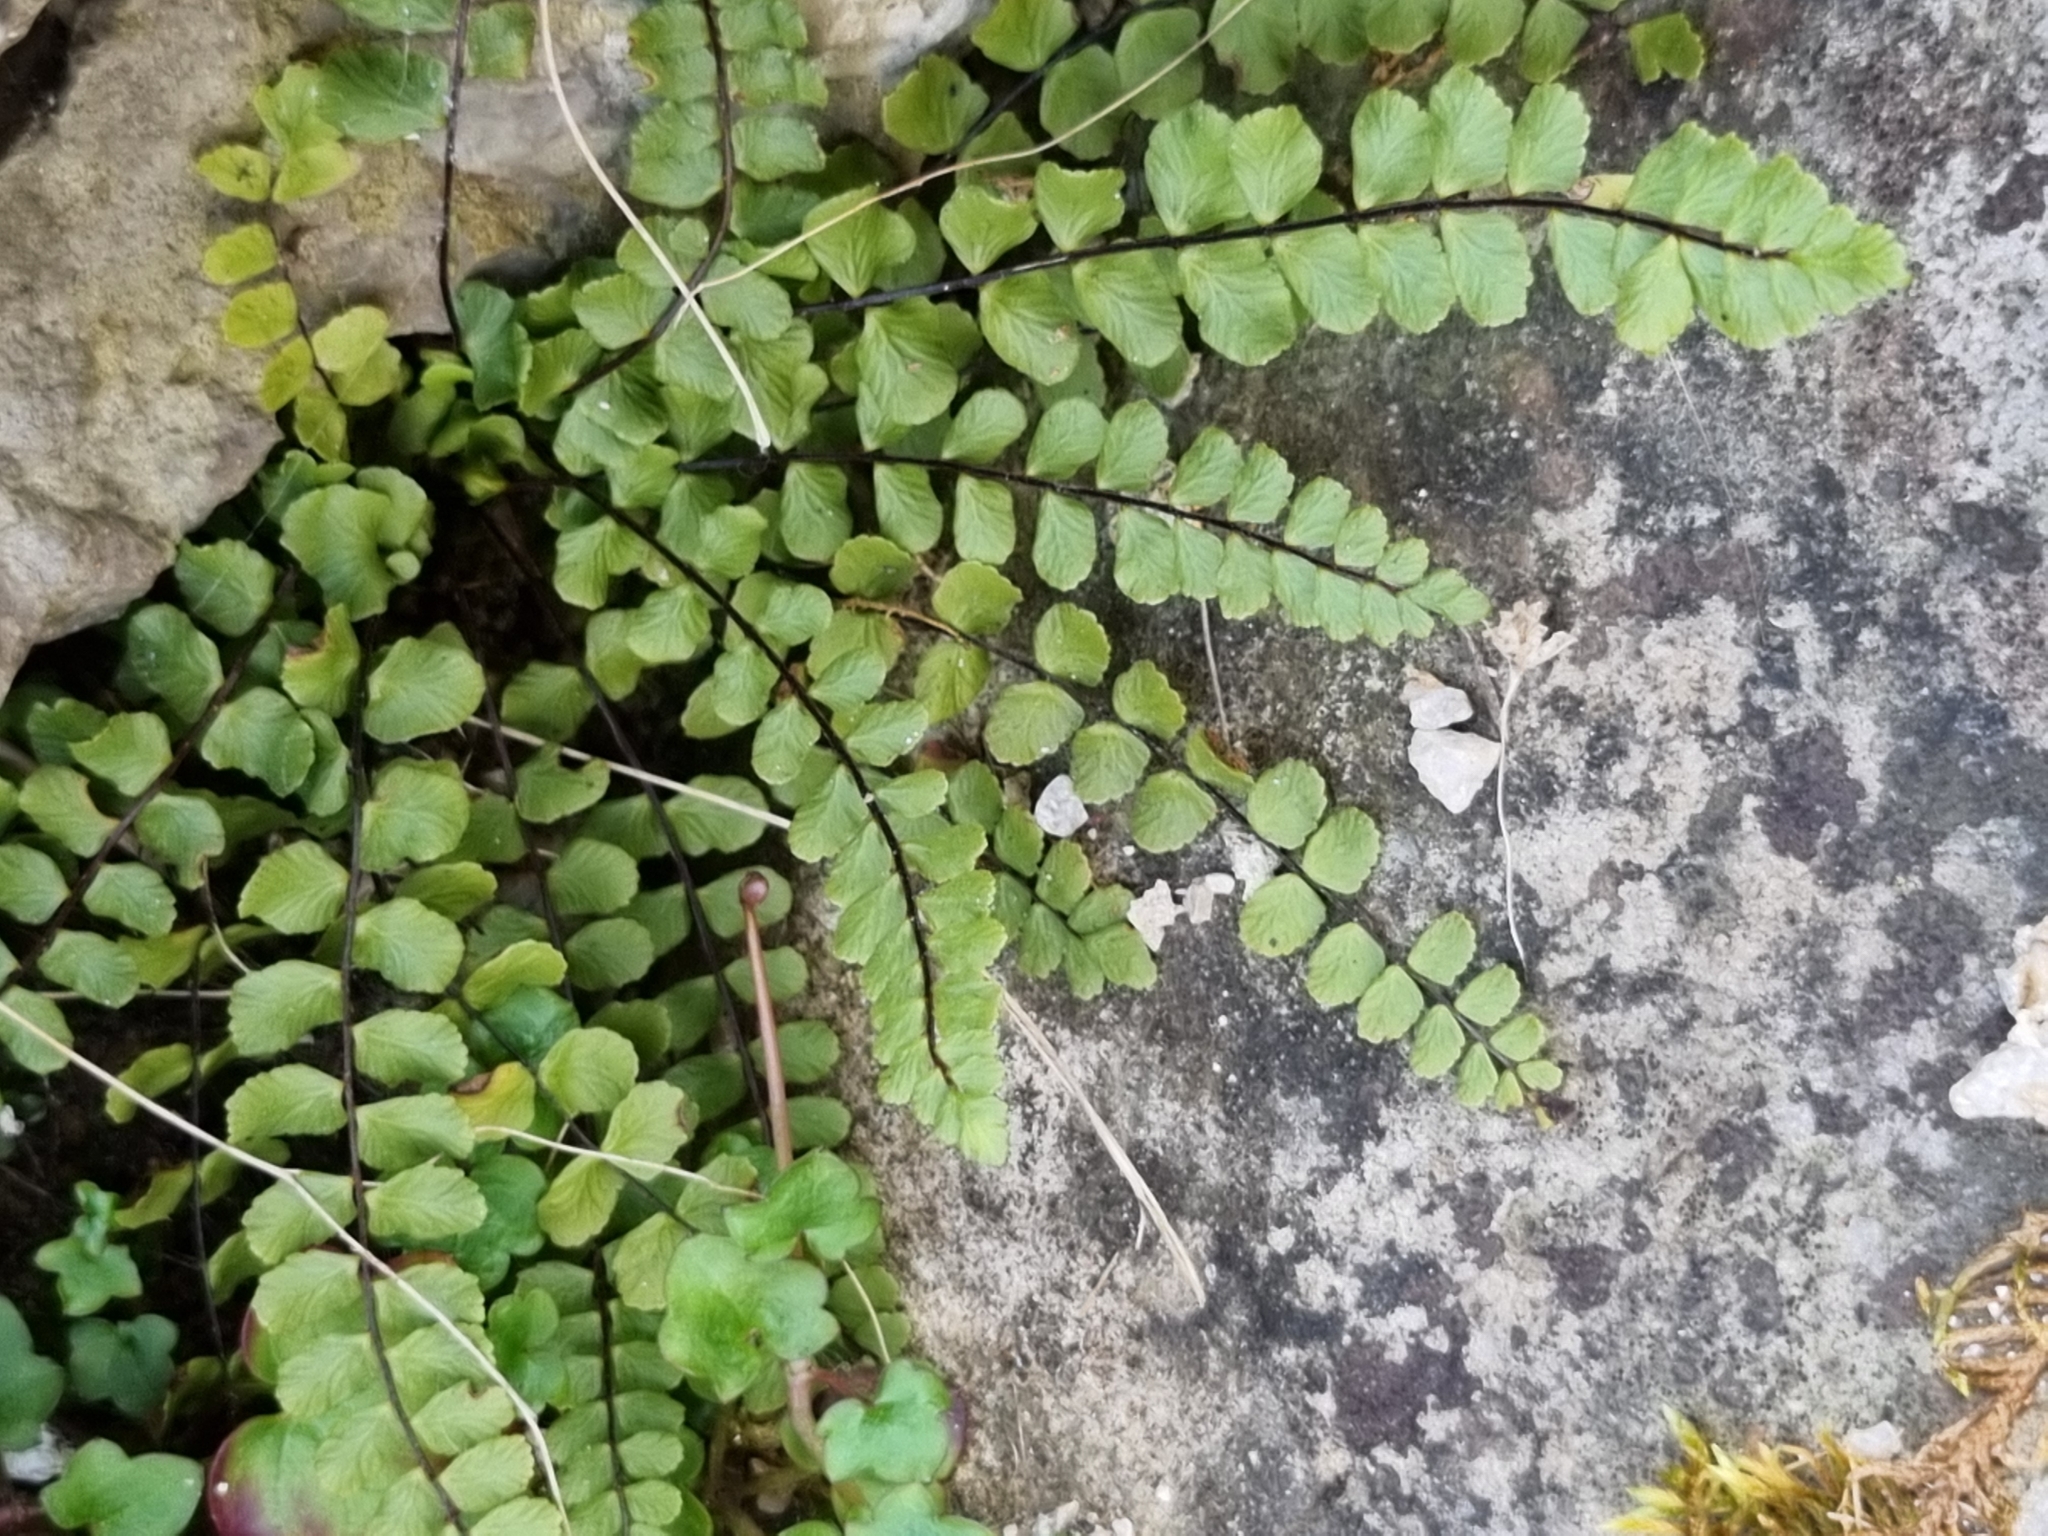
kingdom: Plantae
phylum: Tracheophyta
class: Polypodiopsida
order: Polypodiales
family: Aspleniaceae
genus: Asplenium
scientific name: Asplenium trichomanes
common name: Maidenhair spleenwort
